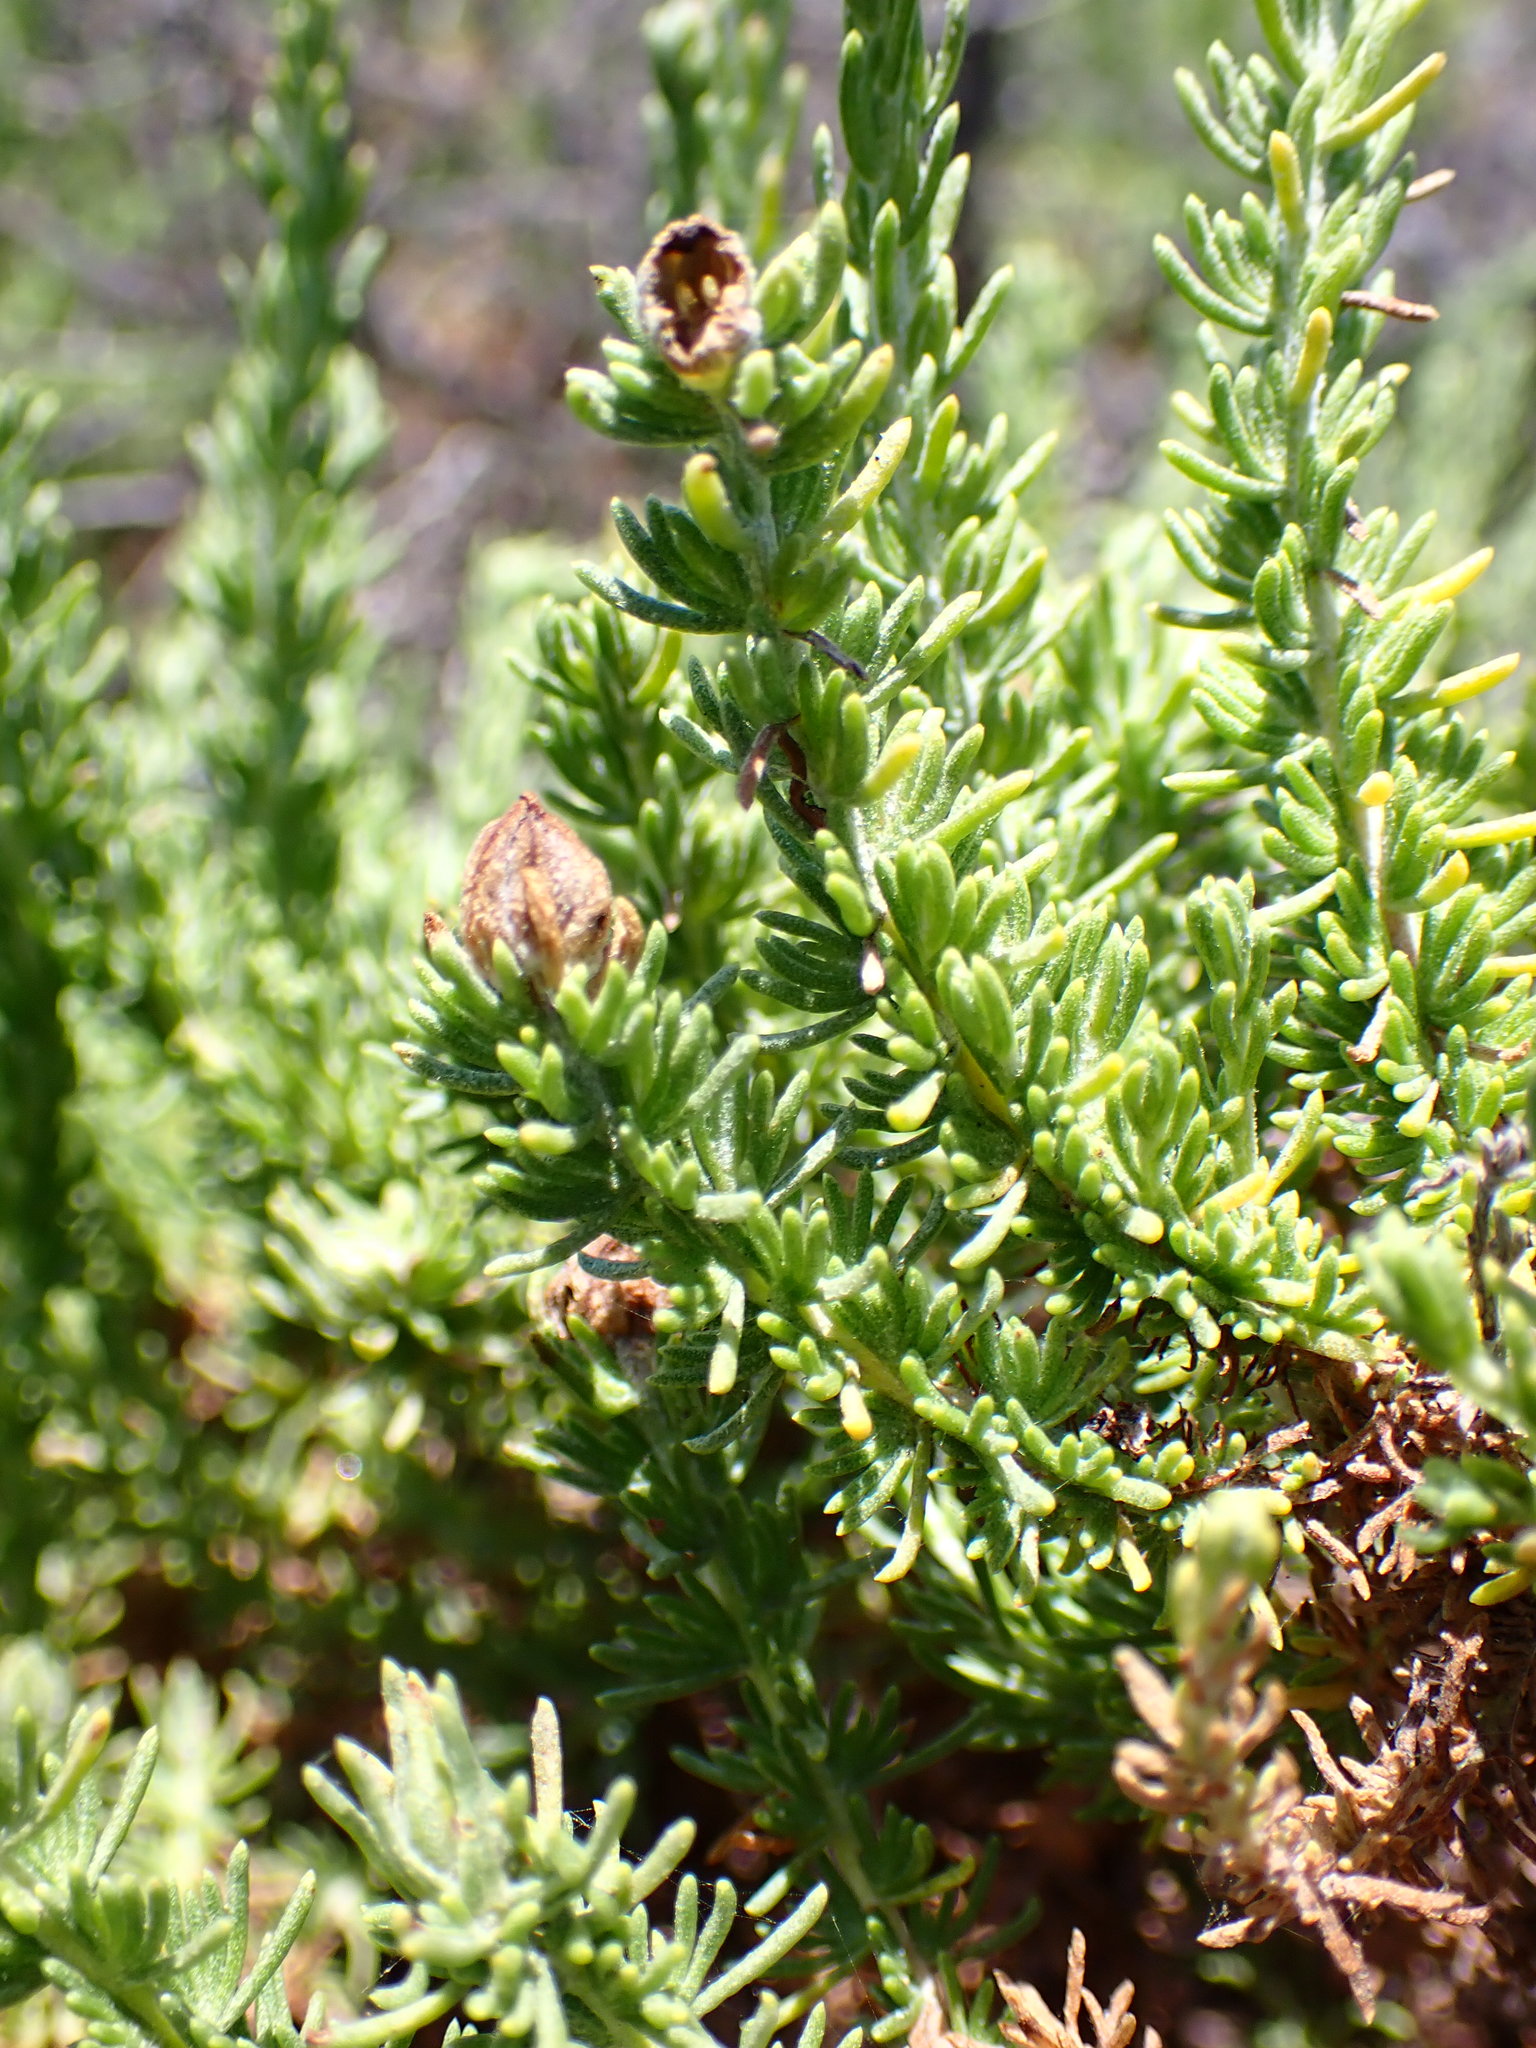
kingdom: Plantae
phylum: Tracheophyta
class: Magnoliopsida
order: Asterales
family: Asteraceae
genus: Ericameria
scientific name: Ericameria ericoides
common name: California goldenbush
